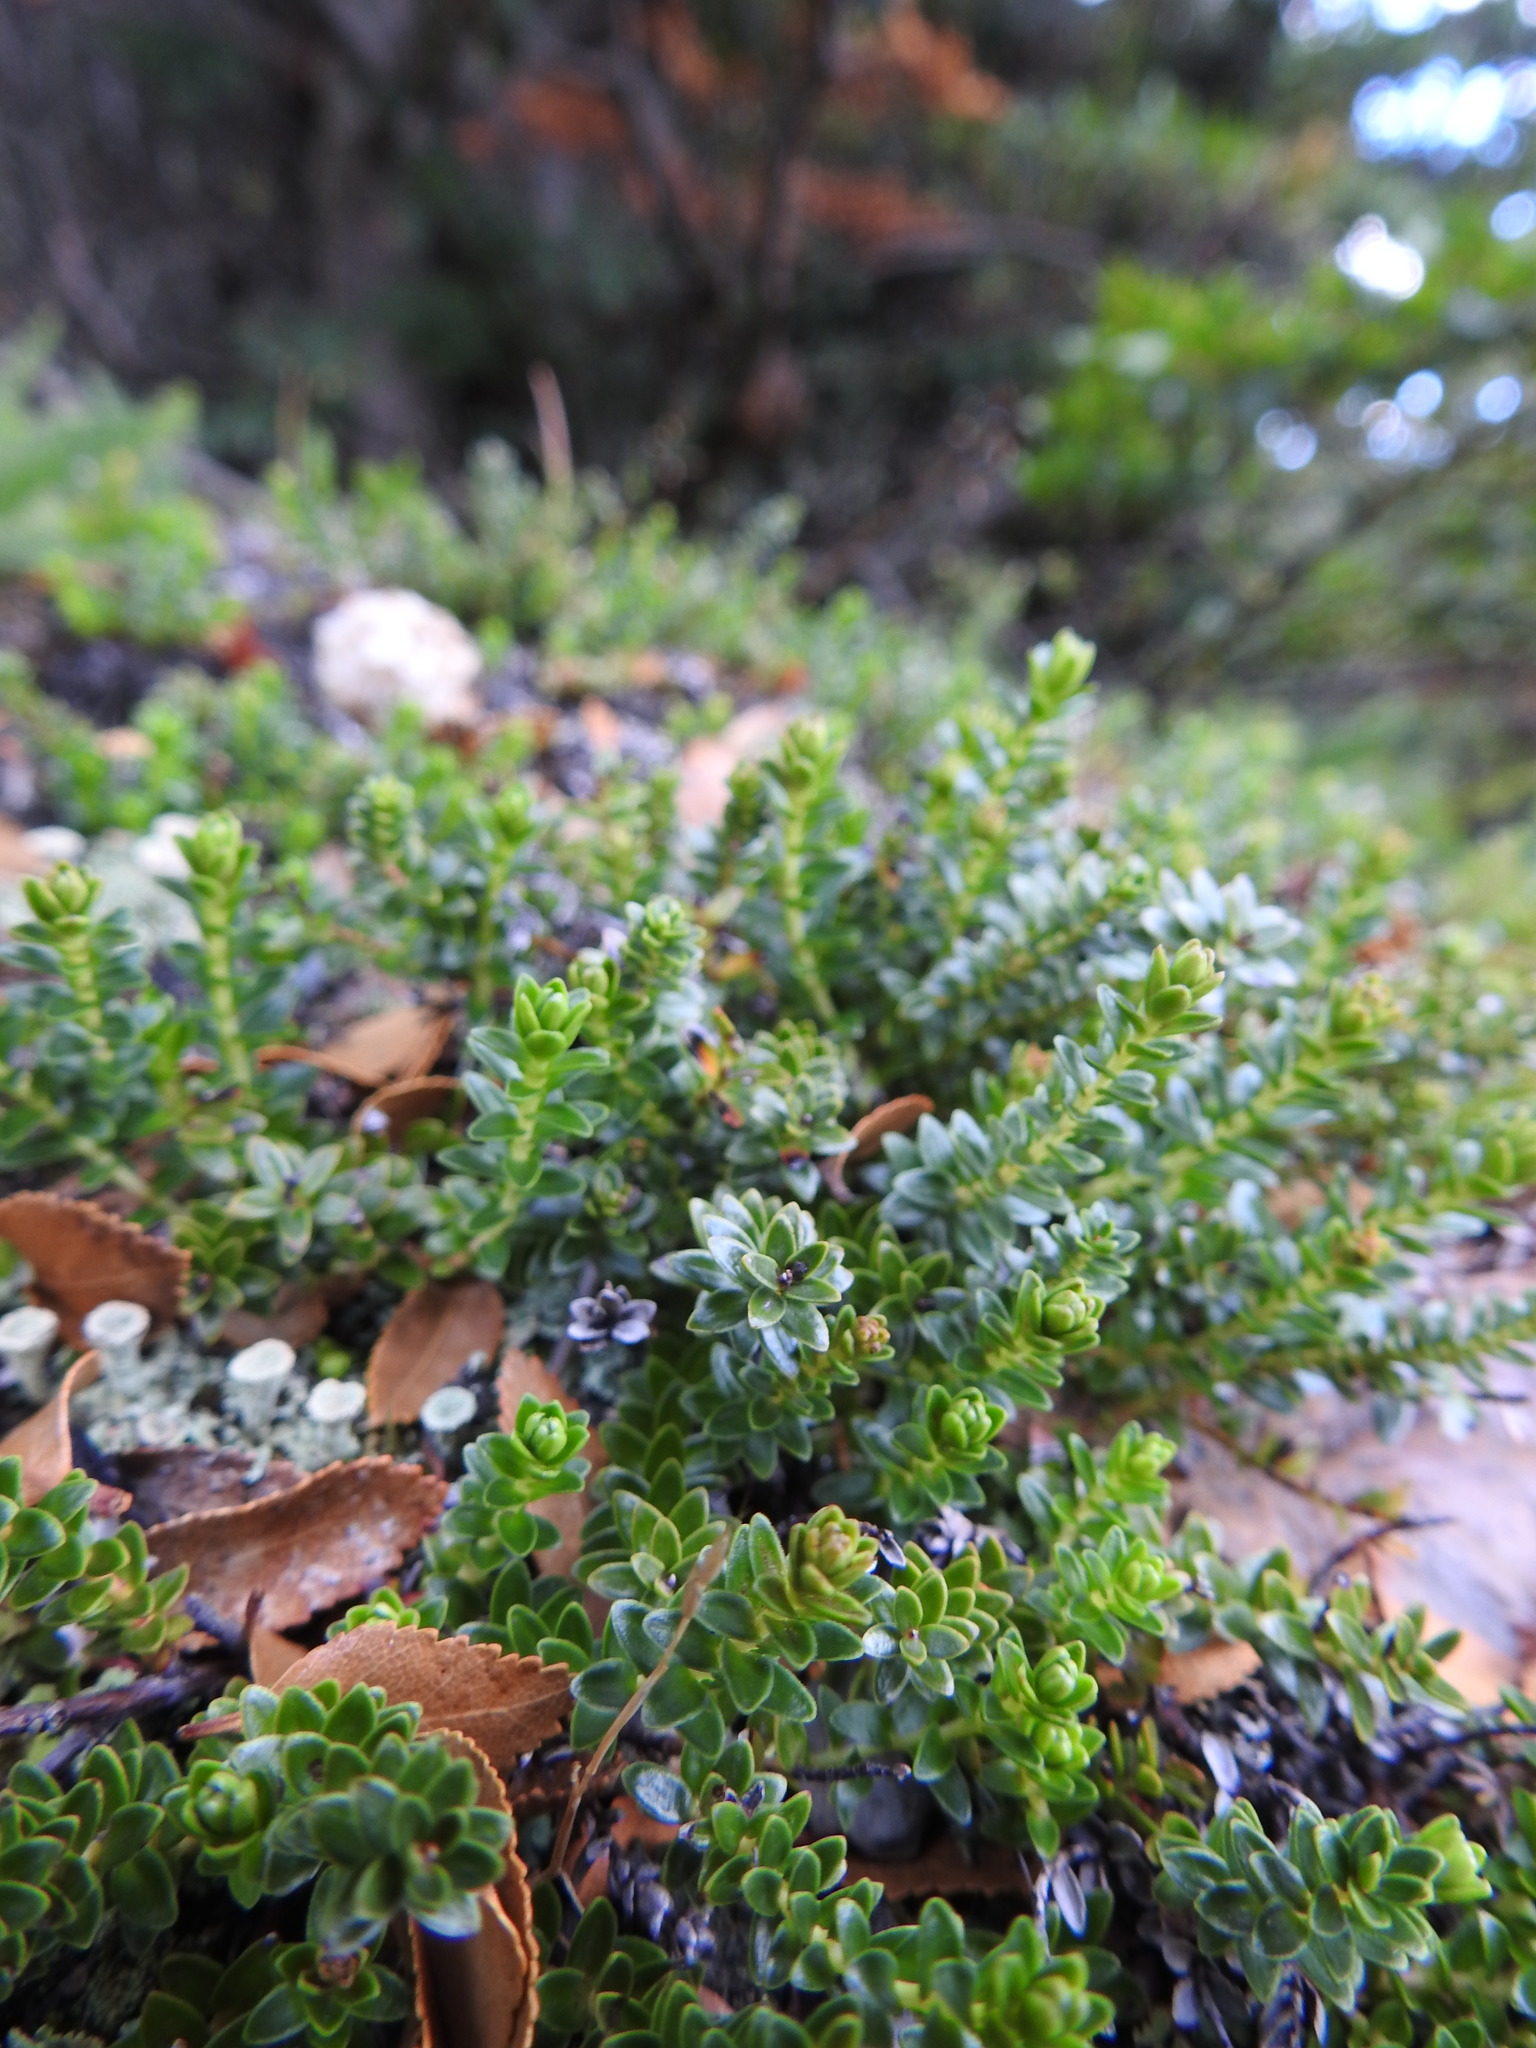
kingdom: Plantae
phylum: Tracheophyta
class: Magnoliopsida
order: Ericales
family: Ericaceae
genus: Gaultheria
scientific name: Gaultheria pumila
